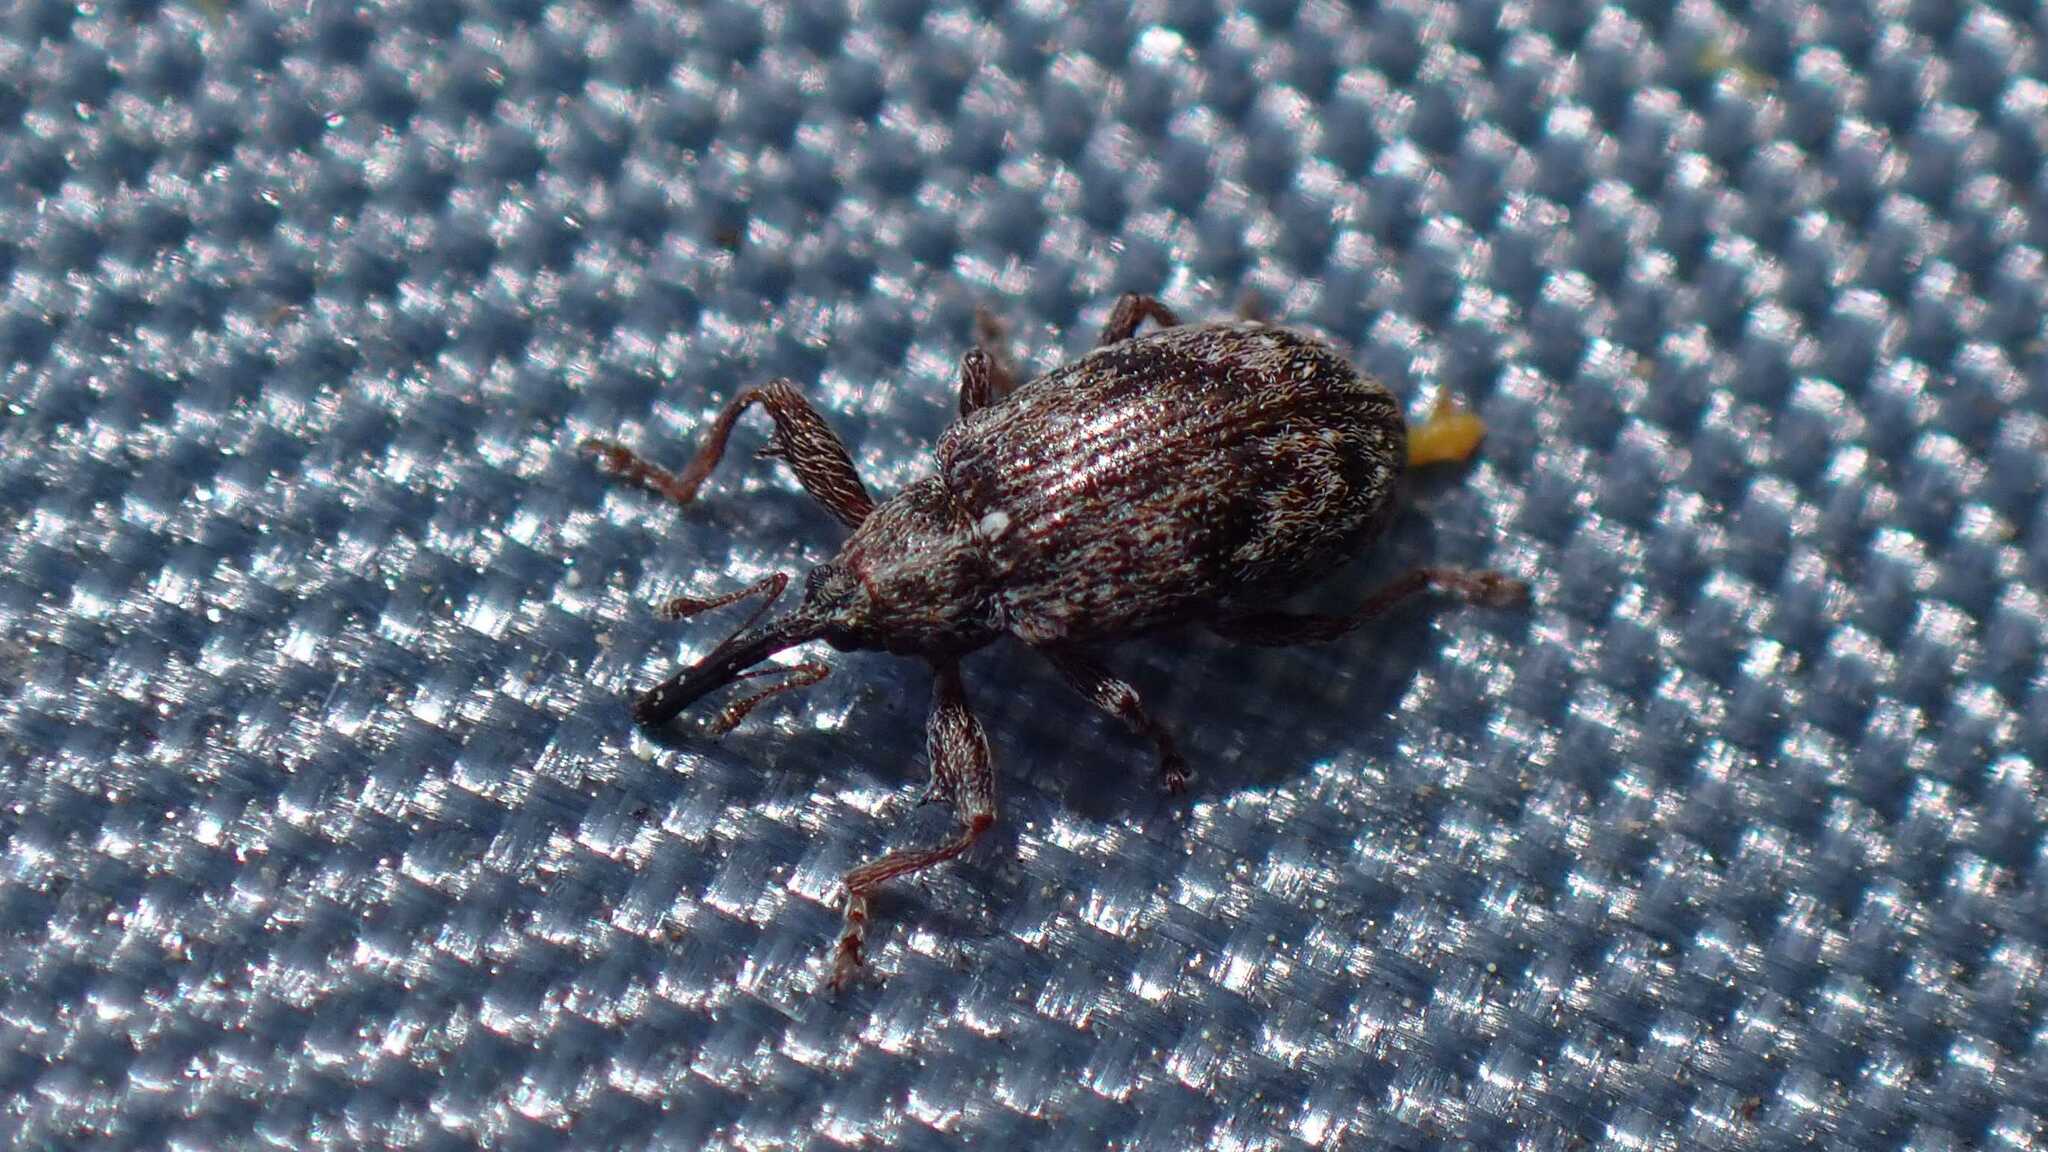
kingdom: Animalia
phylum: Arthropoda
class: Insecta
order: Coleoptera
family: Curculionidae
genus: Anthonomus
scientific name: Anthonomus humeralis
